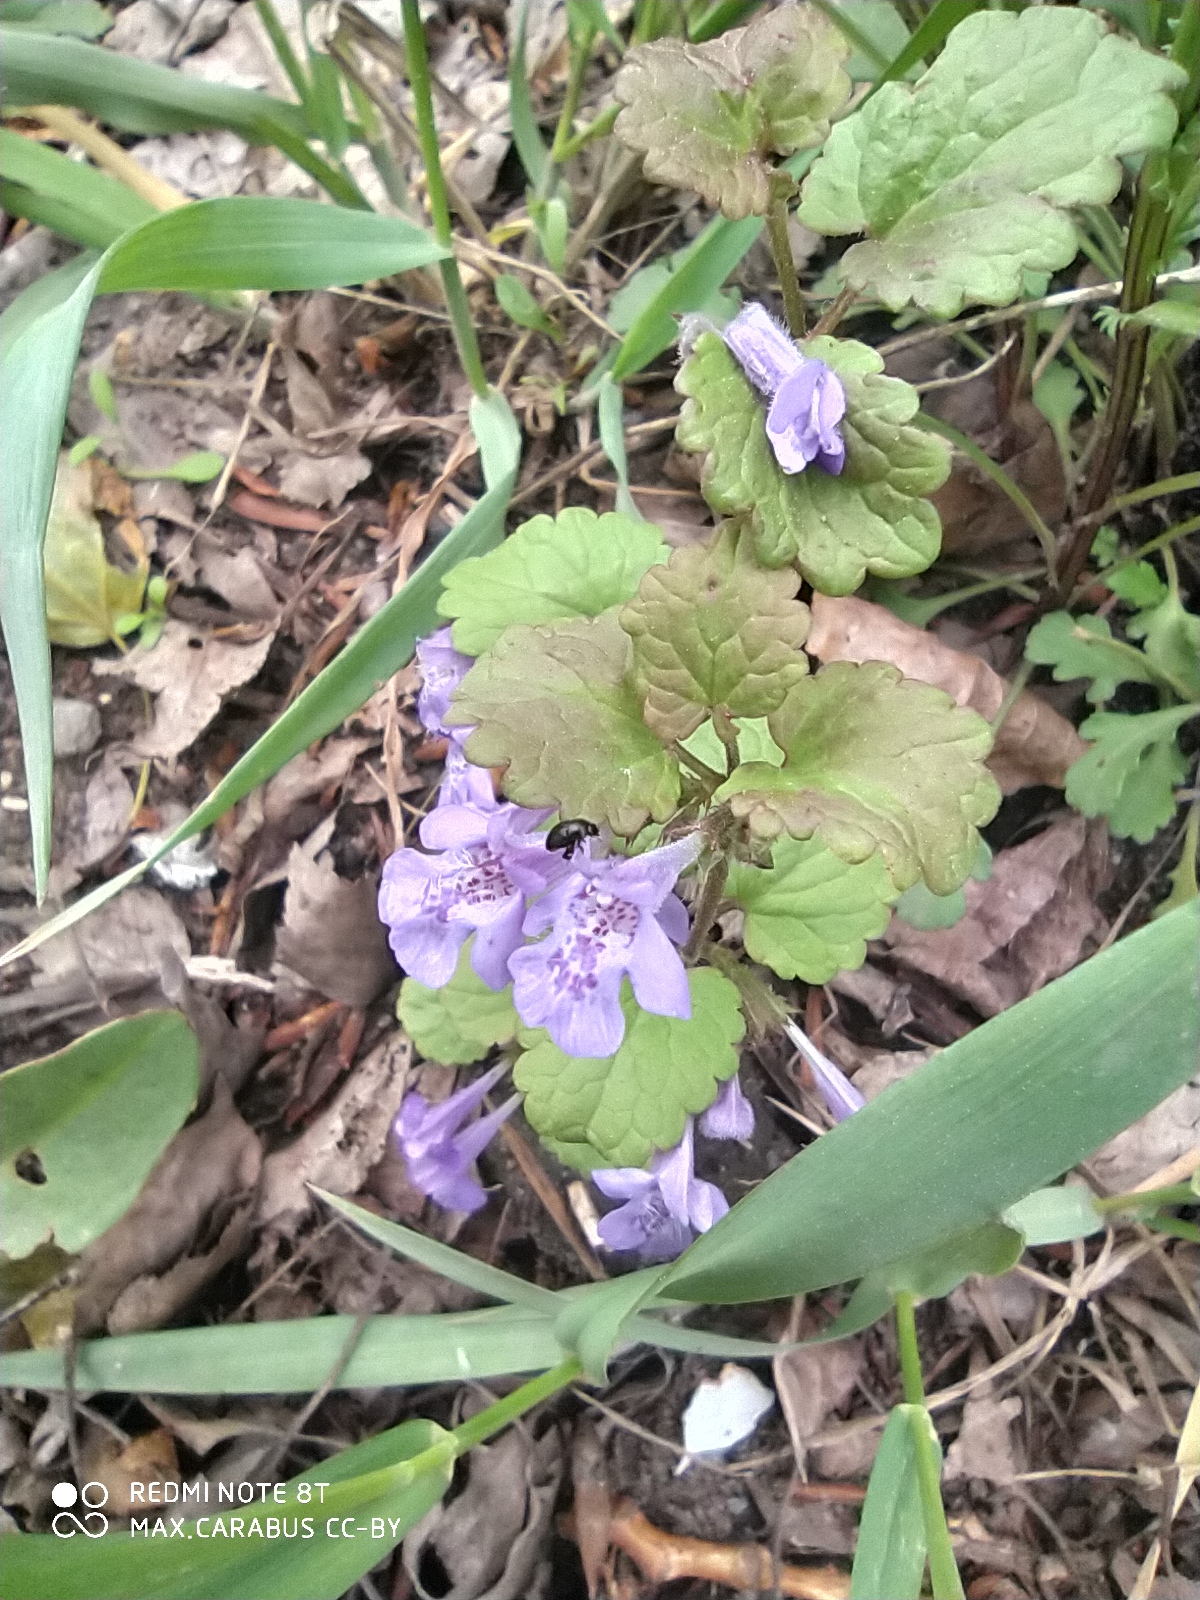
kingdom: Plantae
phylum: Tracheophyta
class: Magnoliopsida
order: Lamiales
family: Lamiaceae
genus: Glechoma
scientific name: Glechoma hederacea
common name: Ground ivy
